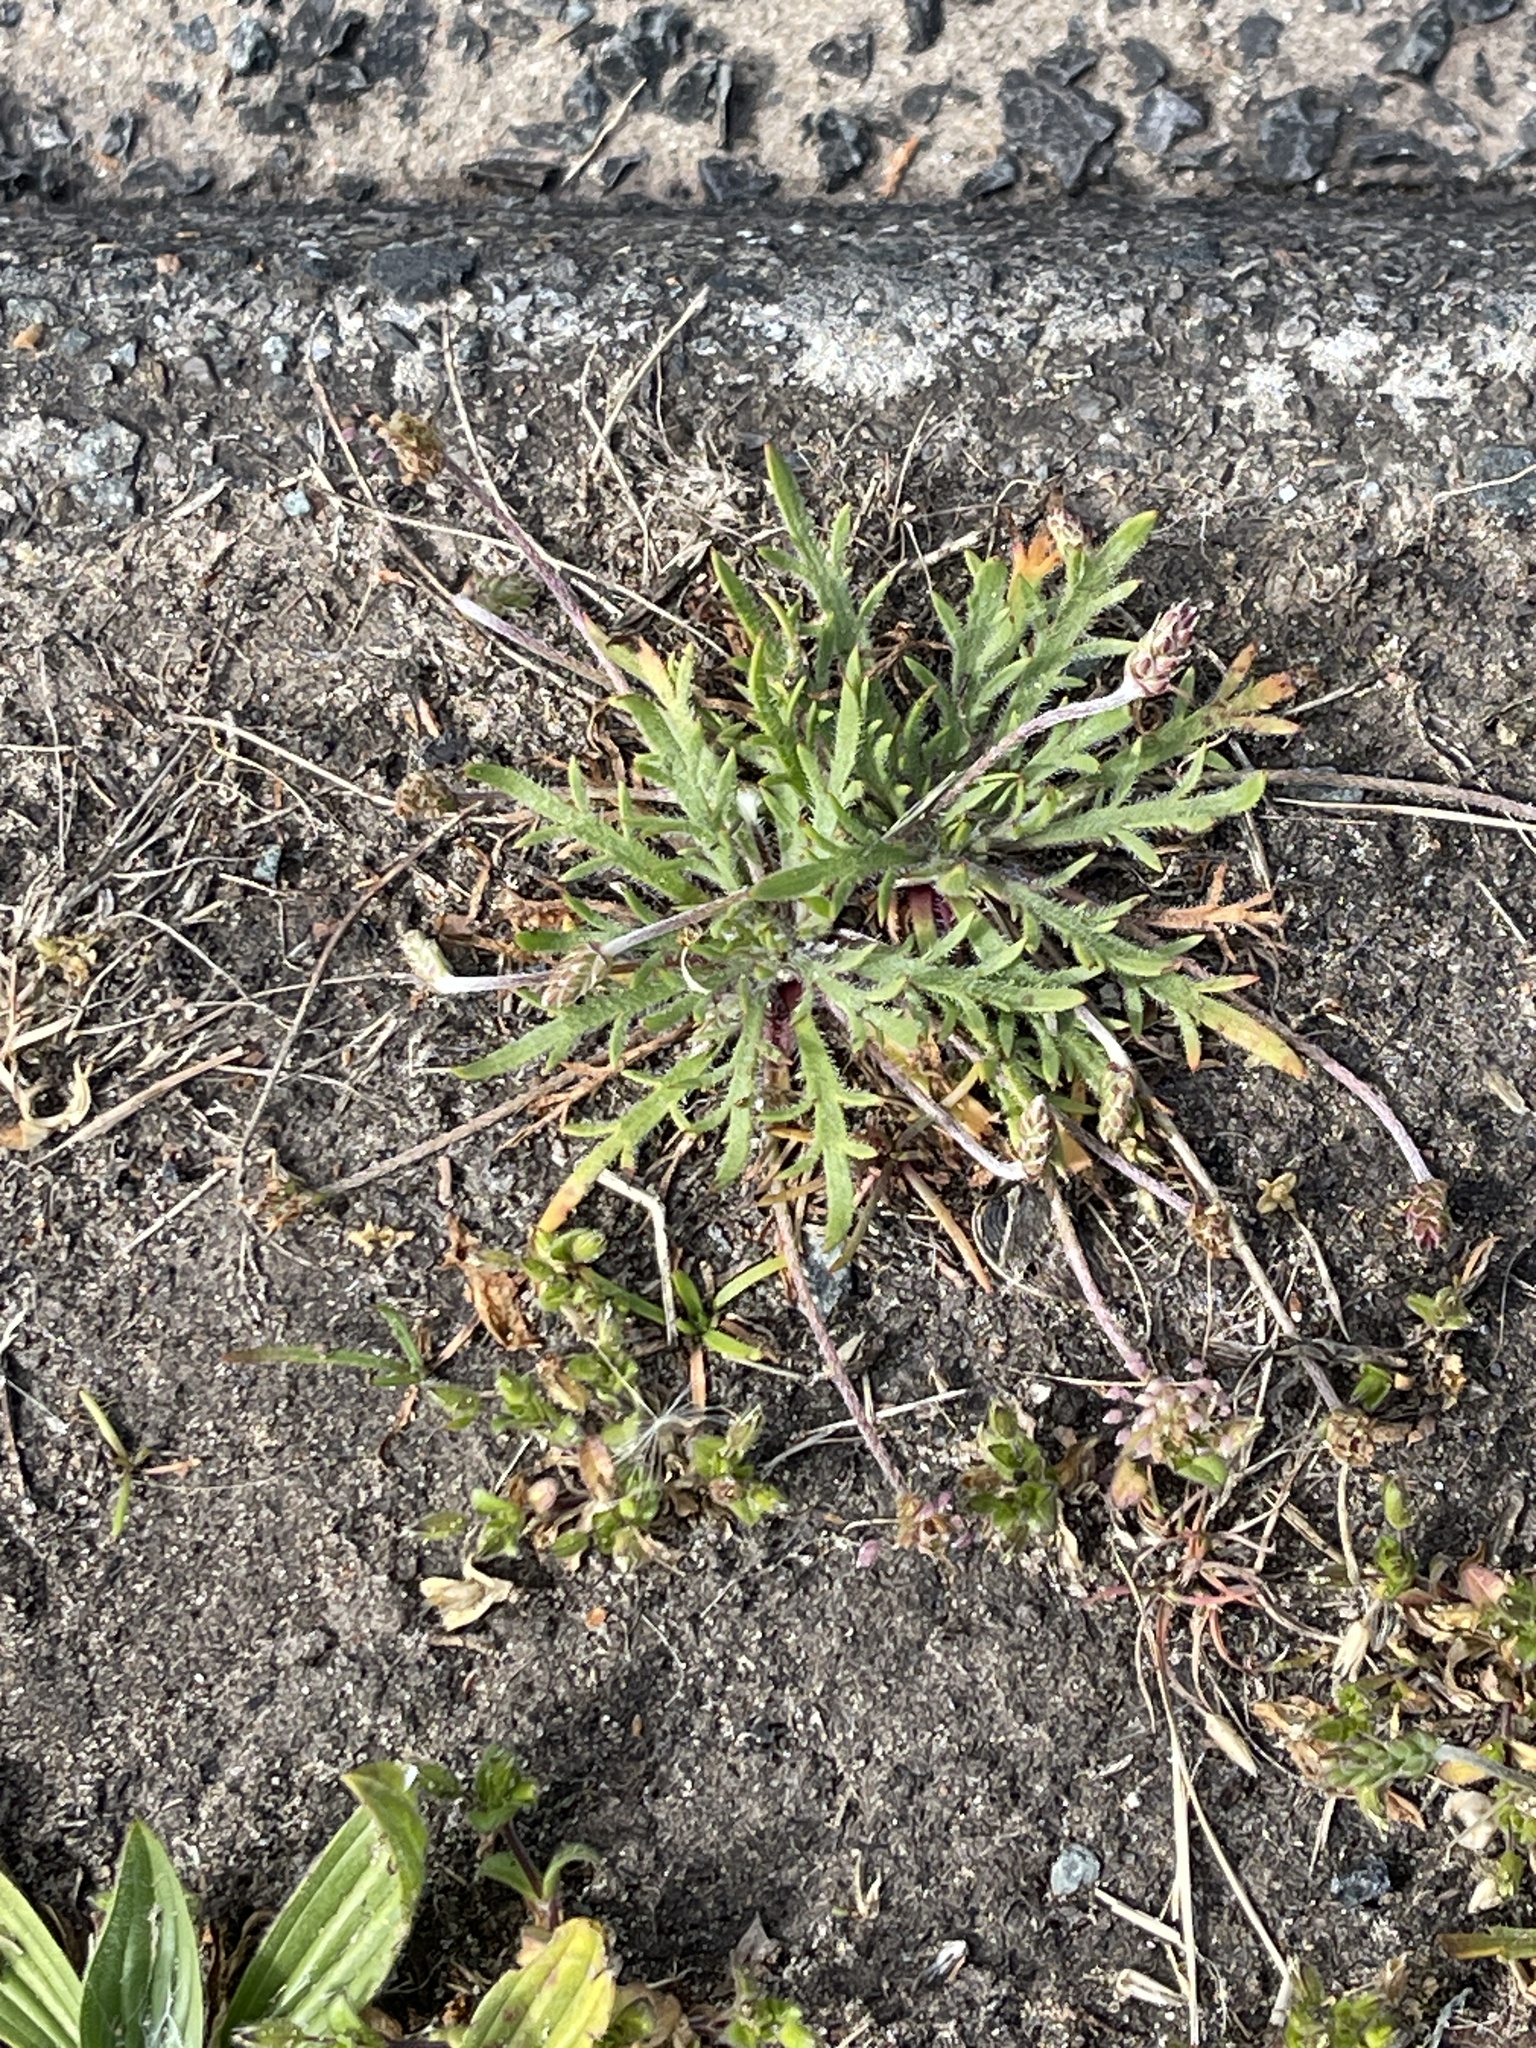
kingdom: Plantae
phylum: Tracheophyta
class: Magnoliopsida
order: Lamiales
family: Plantaginaceae
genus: Plantago
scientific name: Plantago coronopus
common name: Buck's-horn plantain
